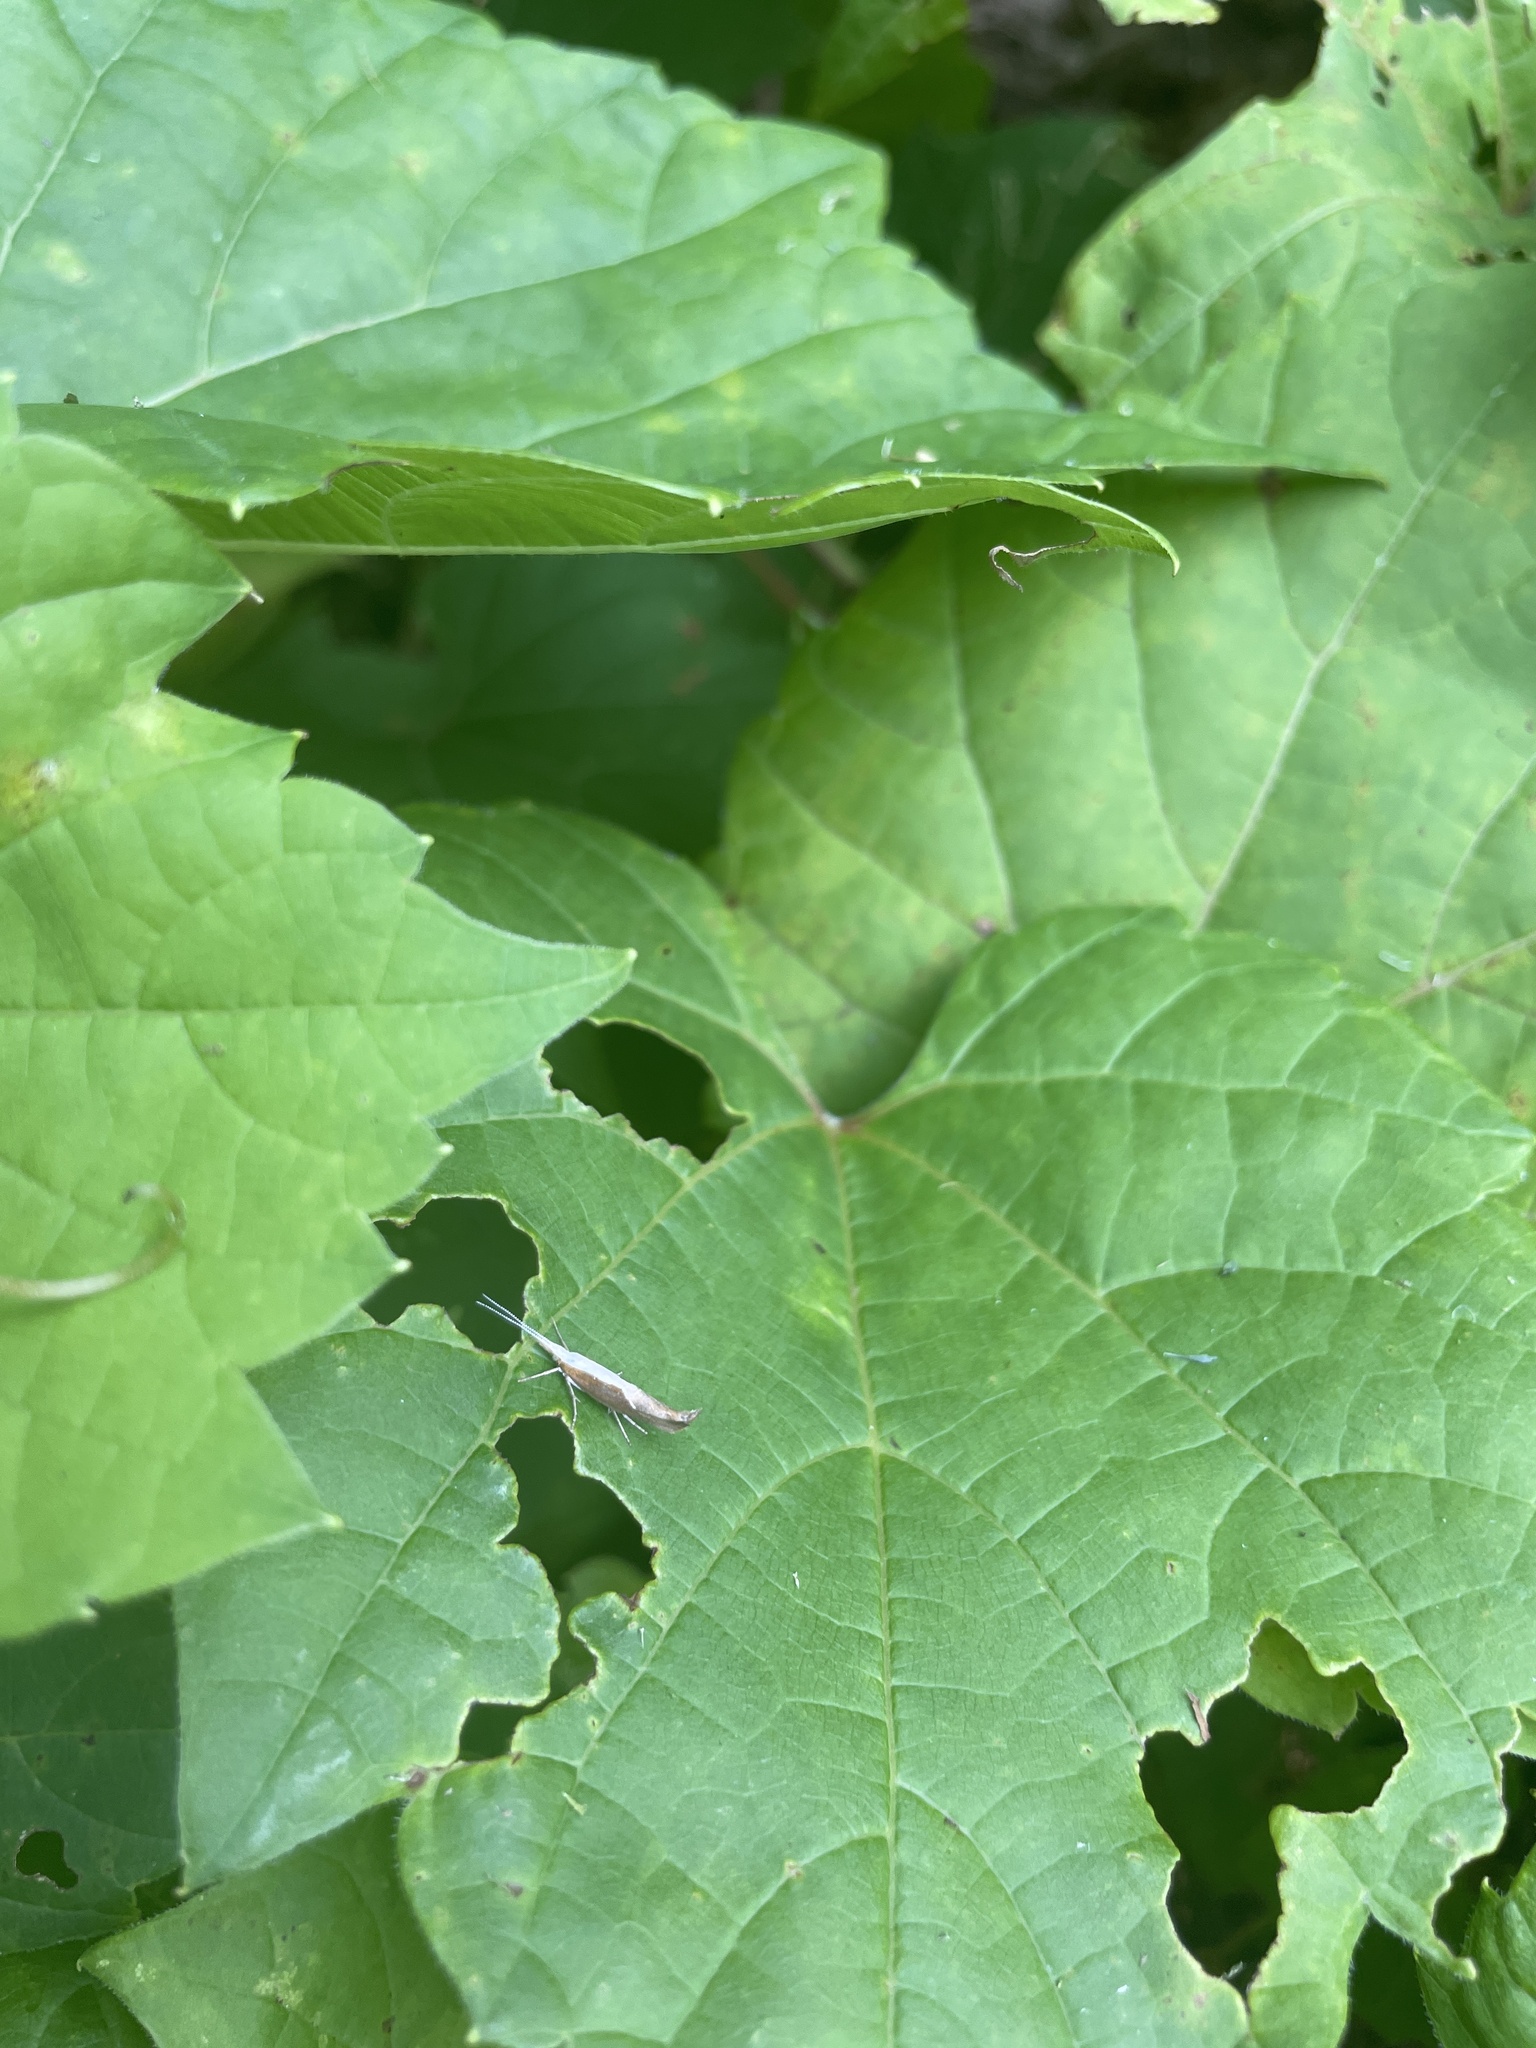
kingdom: Animalia
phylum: Arthropoda
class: Insecta
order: Lepidoptera
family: Ypsolophidae
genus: Ypsolopha
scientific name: Ypsolopha dentella
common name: Honeysuckle moth
